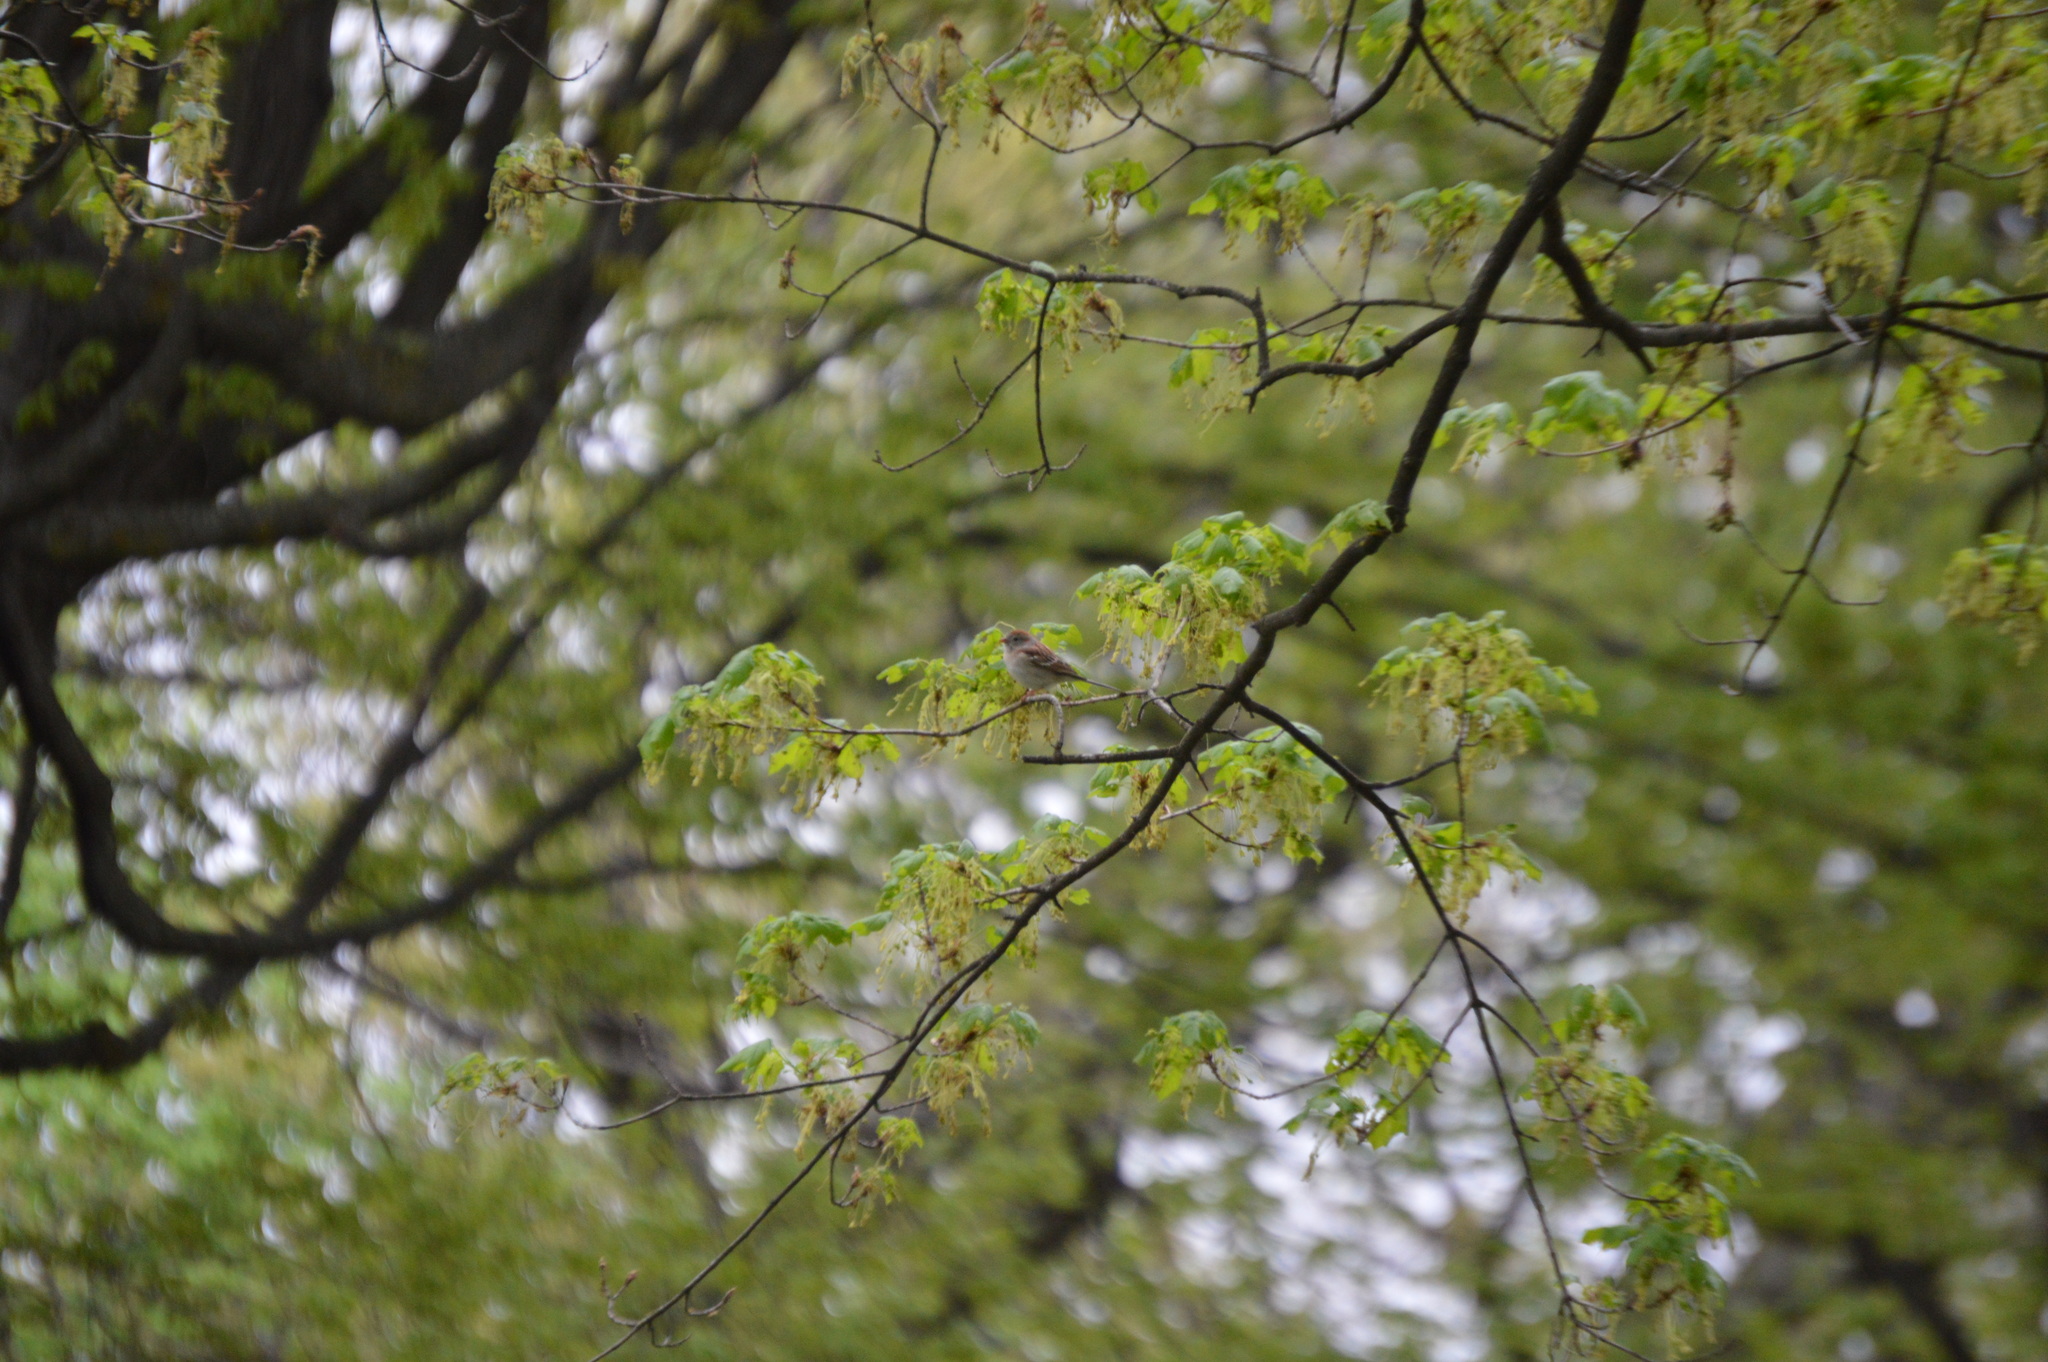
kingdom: Animalia
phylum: Chordata
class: Aves
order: Passeriformes
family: Passerellidae
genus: Spizella
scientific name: Spizella pusilla
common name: Field sparrow
